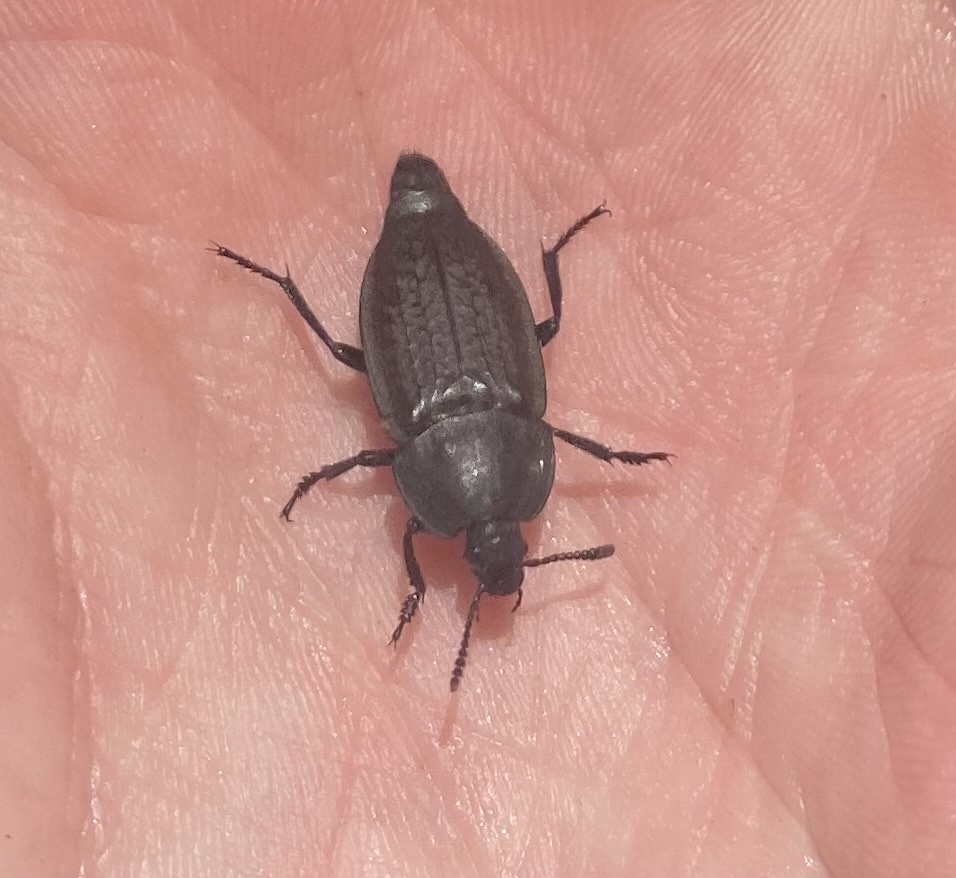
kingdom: Animalia
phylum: Arthropoda
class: Insecta
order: Coleoptera
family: Staphylinidae
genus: Heterosilpha
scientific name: Heterosilpha ramosa
